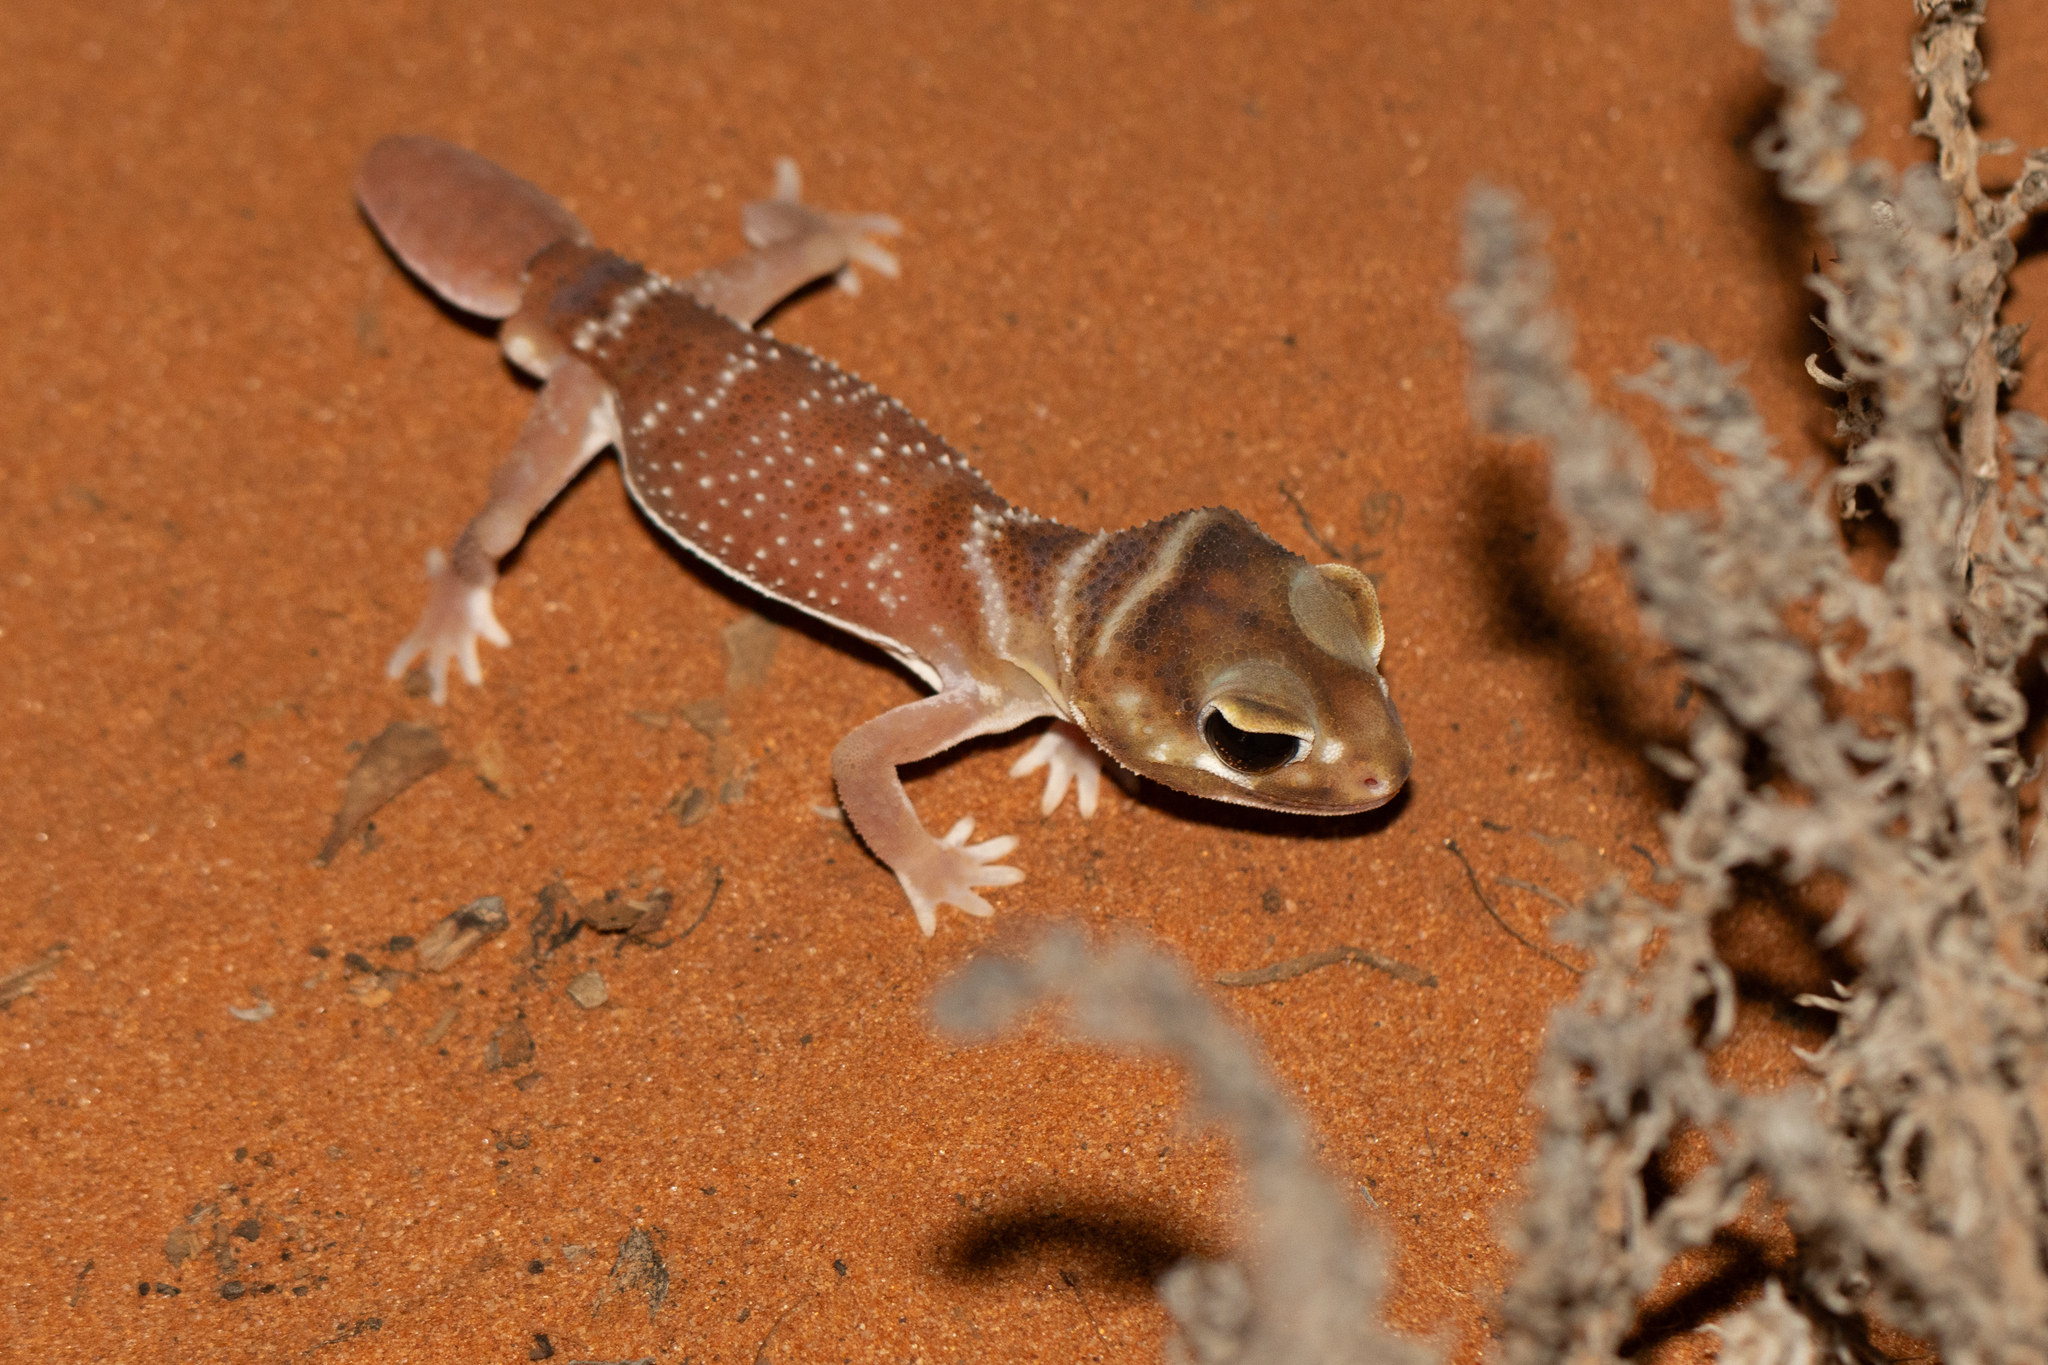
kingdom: Animalia
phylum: Chordata
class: Squamata
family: Carphodactylidae
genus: Nephrurus
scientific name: Nephrurus levis
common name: Smooth knob-tailed gecko
